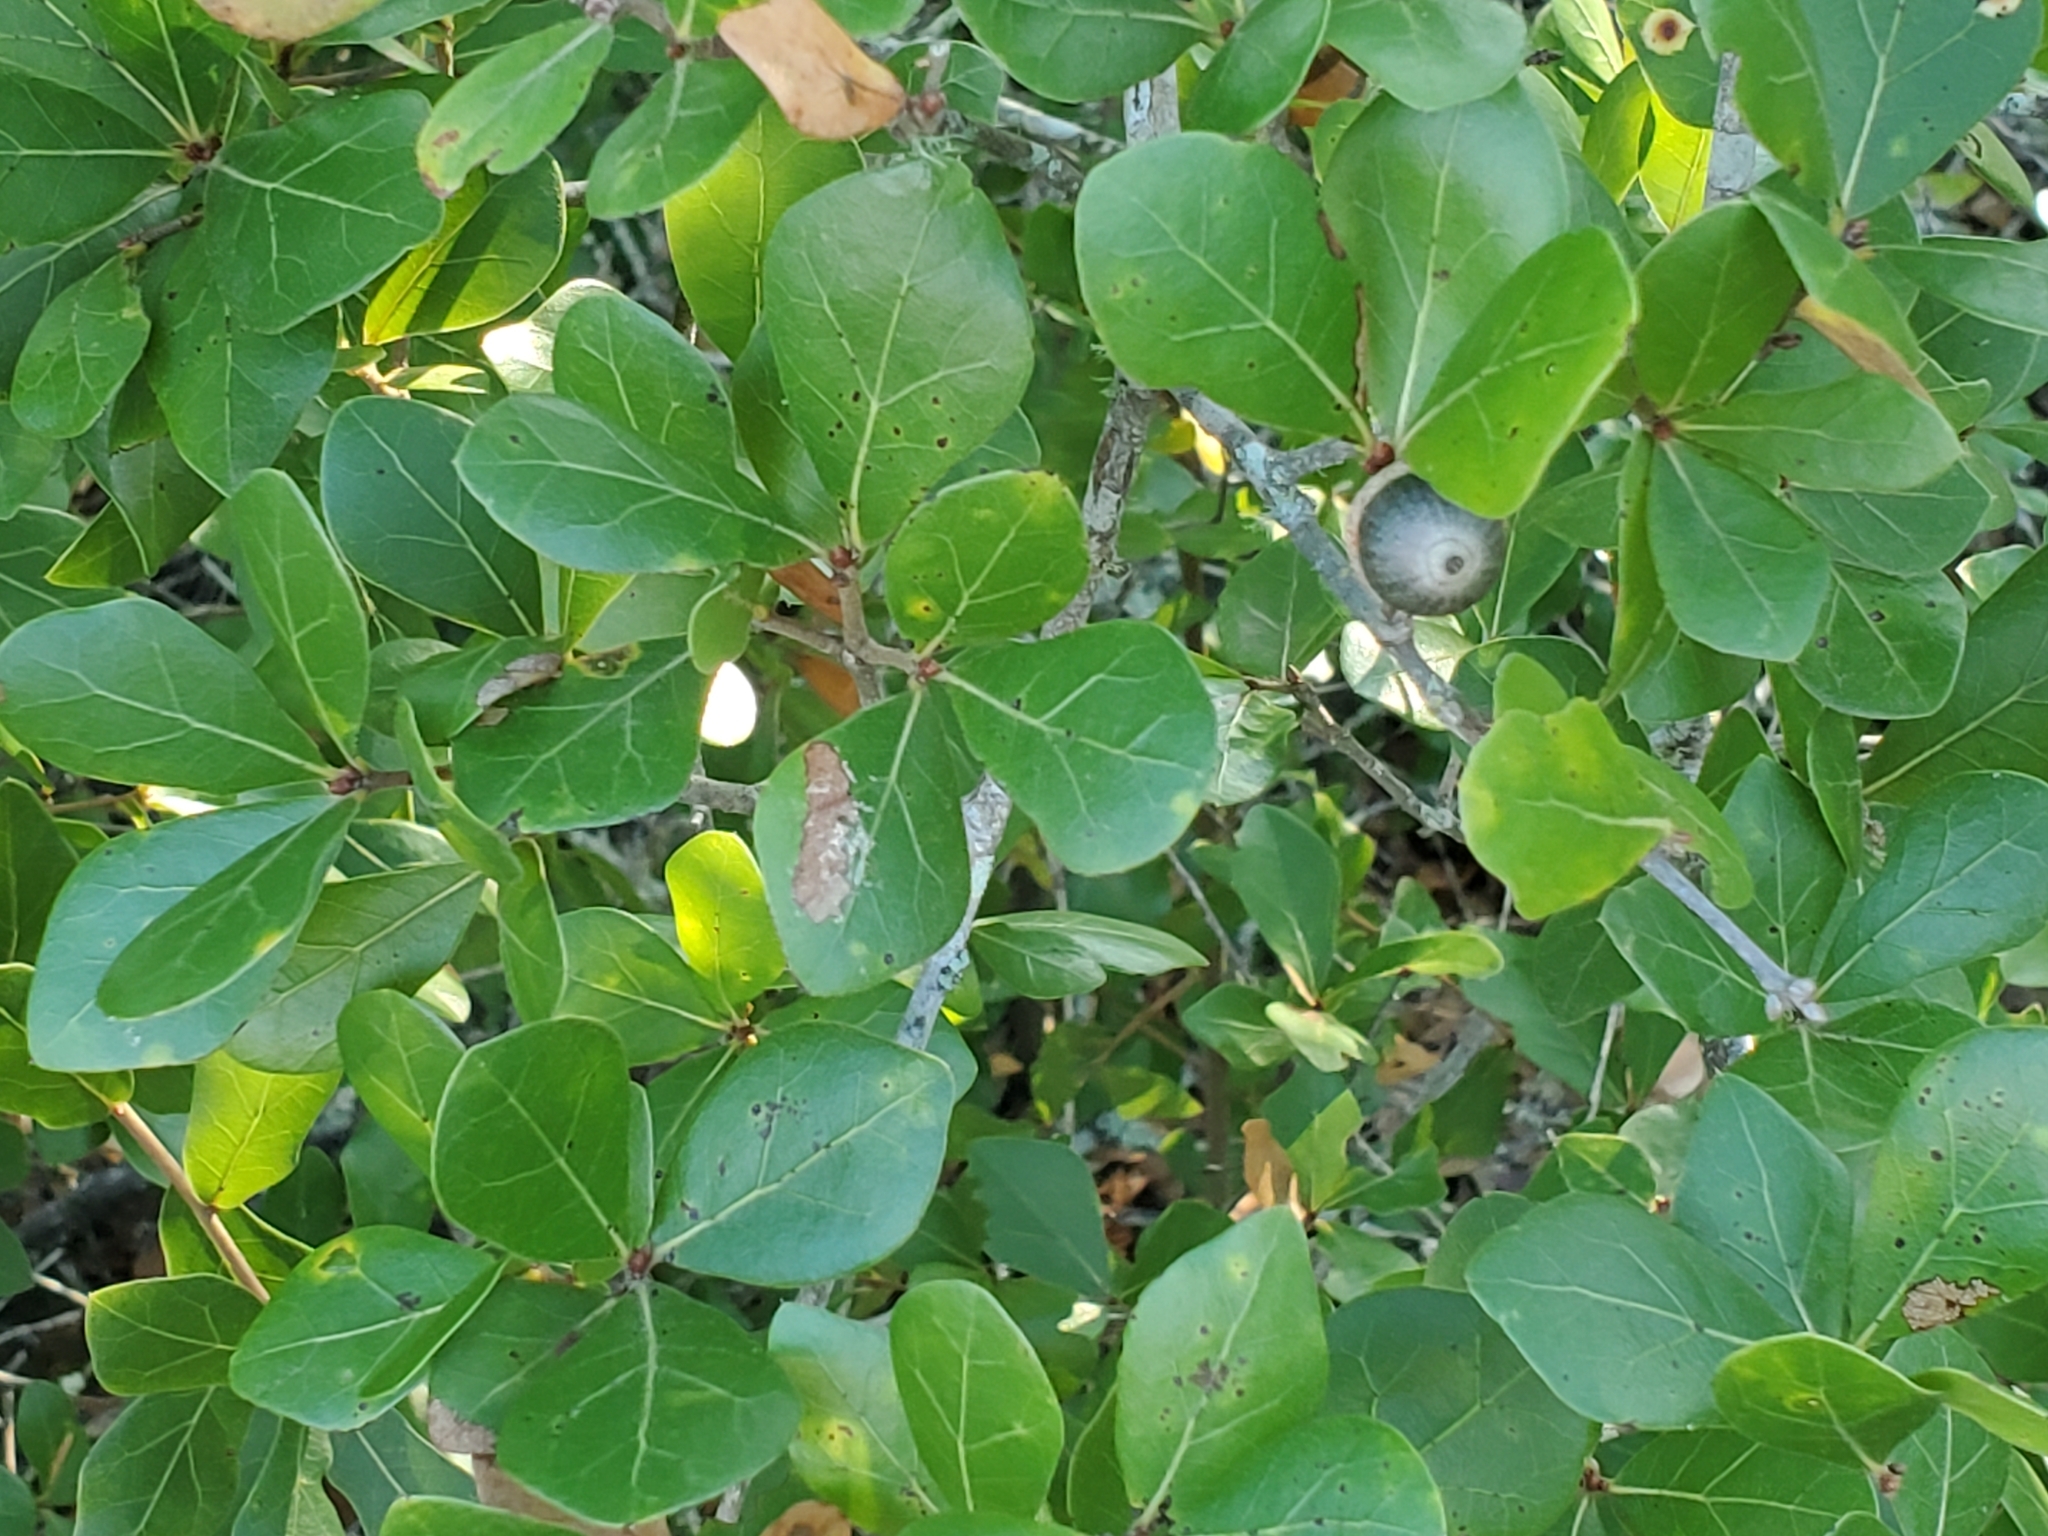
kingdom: Plantae
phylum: Tracheophyta
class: Magnoliopsida
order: Fagales
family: Fagaceae
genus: Quercus
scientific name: Quercus myrtifolia
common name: Myrtle oak
